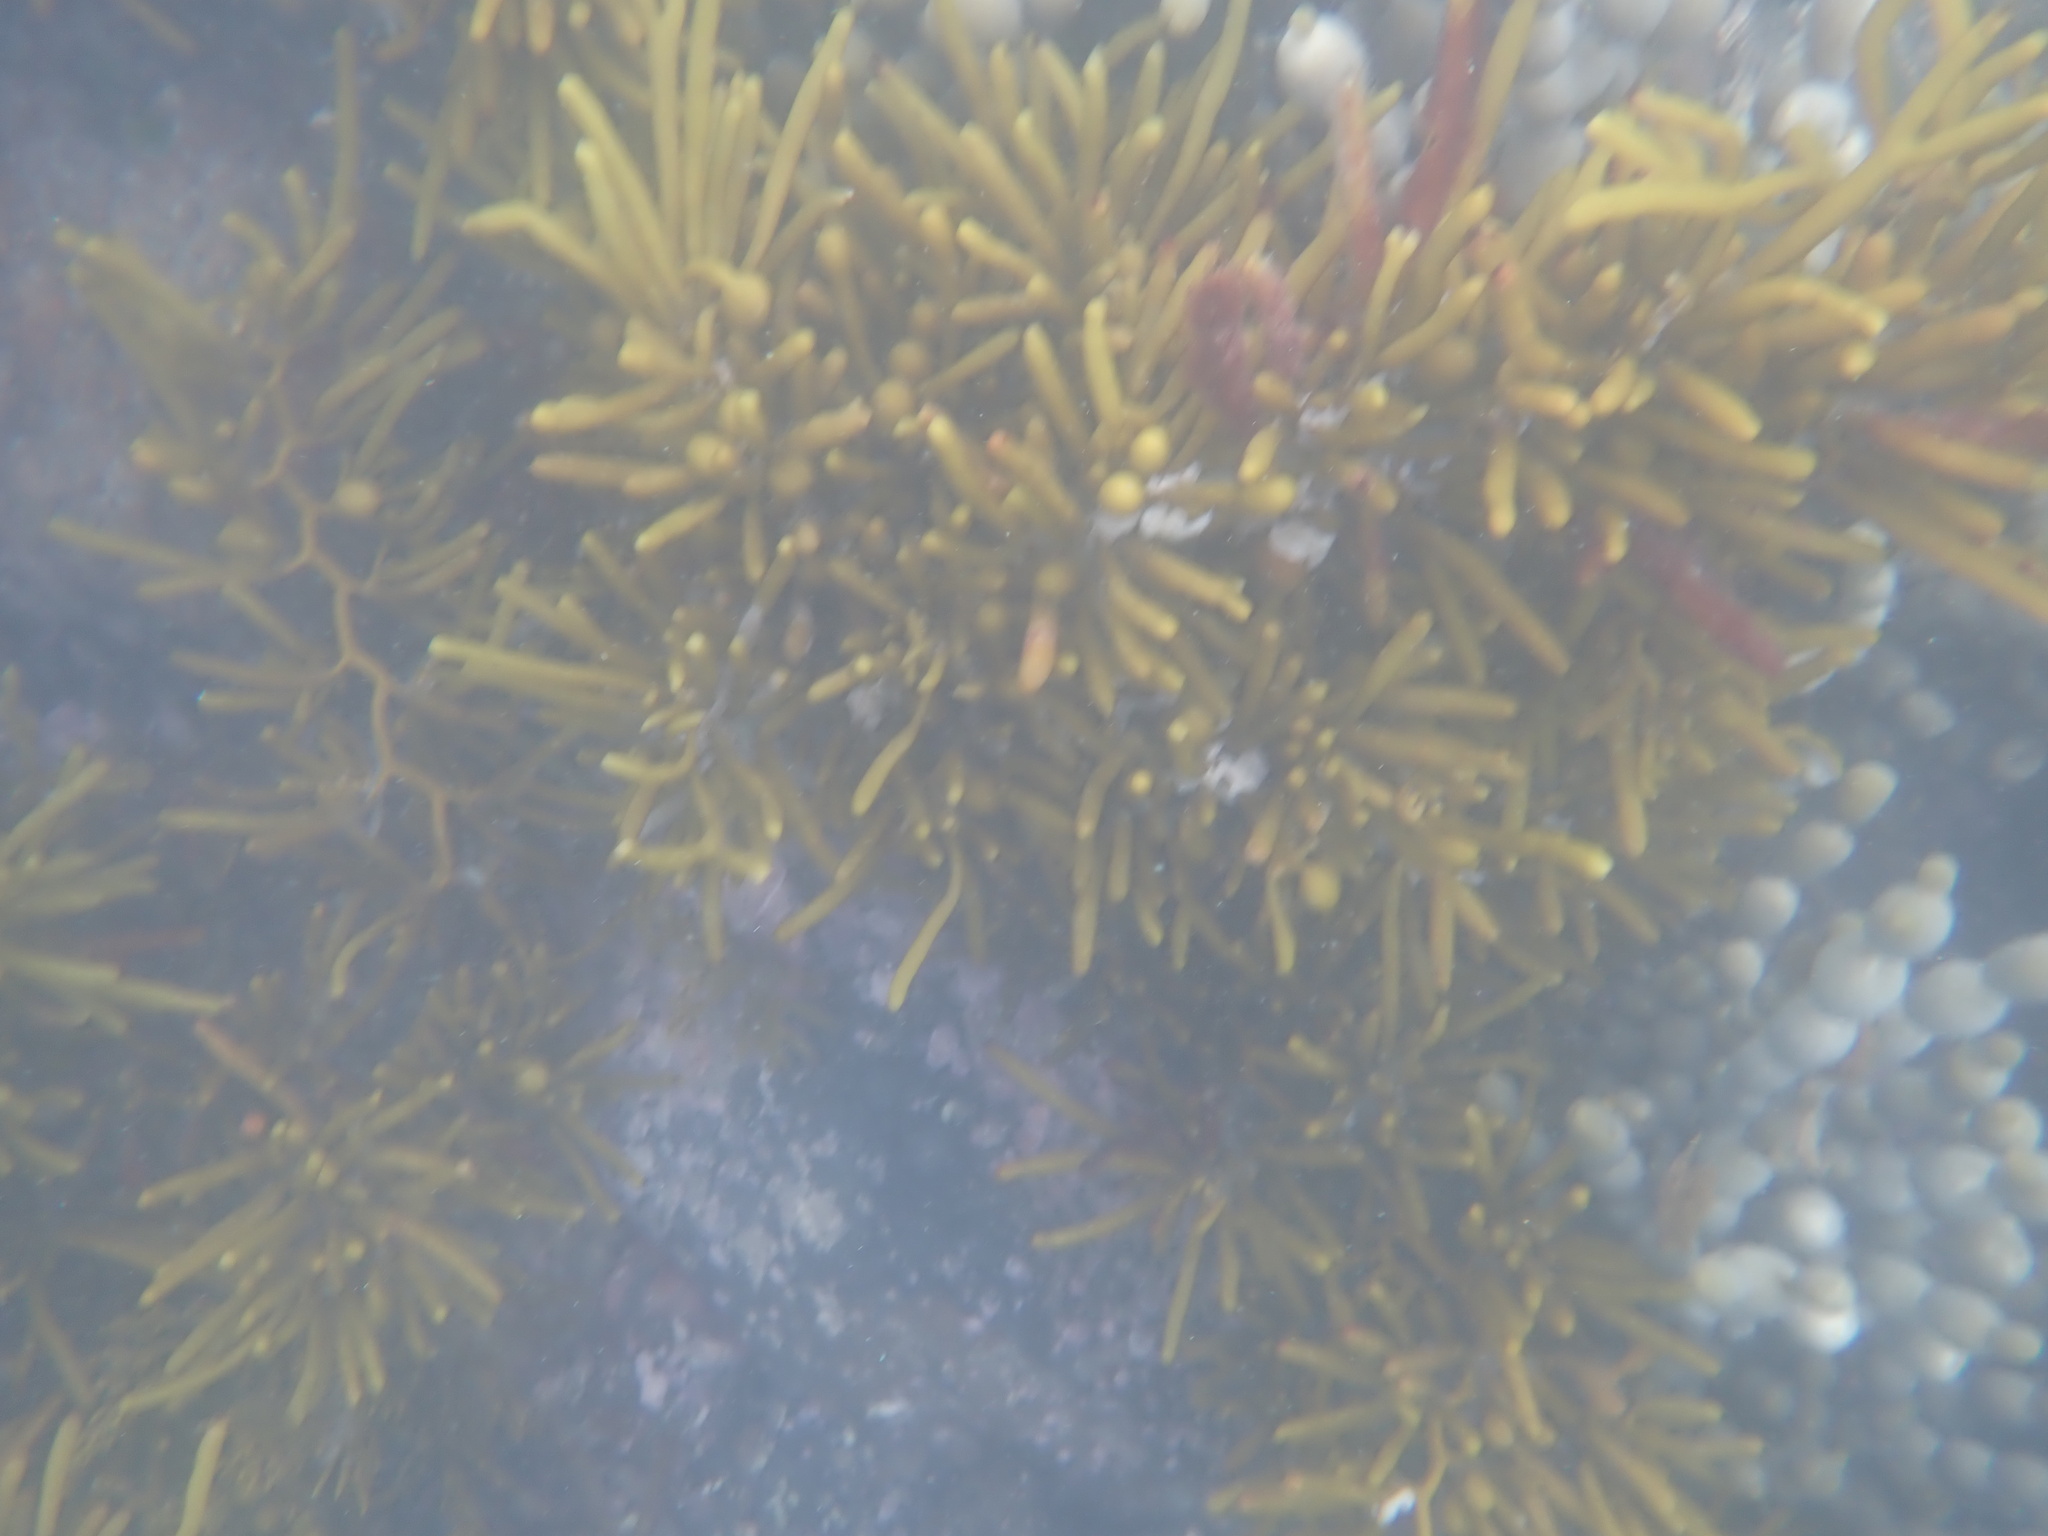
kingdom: Chromista
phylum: Ochrophyta
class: Phaeophyceae
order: Fucales
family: Sargassaceae
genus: Cystophora
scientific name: Cystophora torulosa
